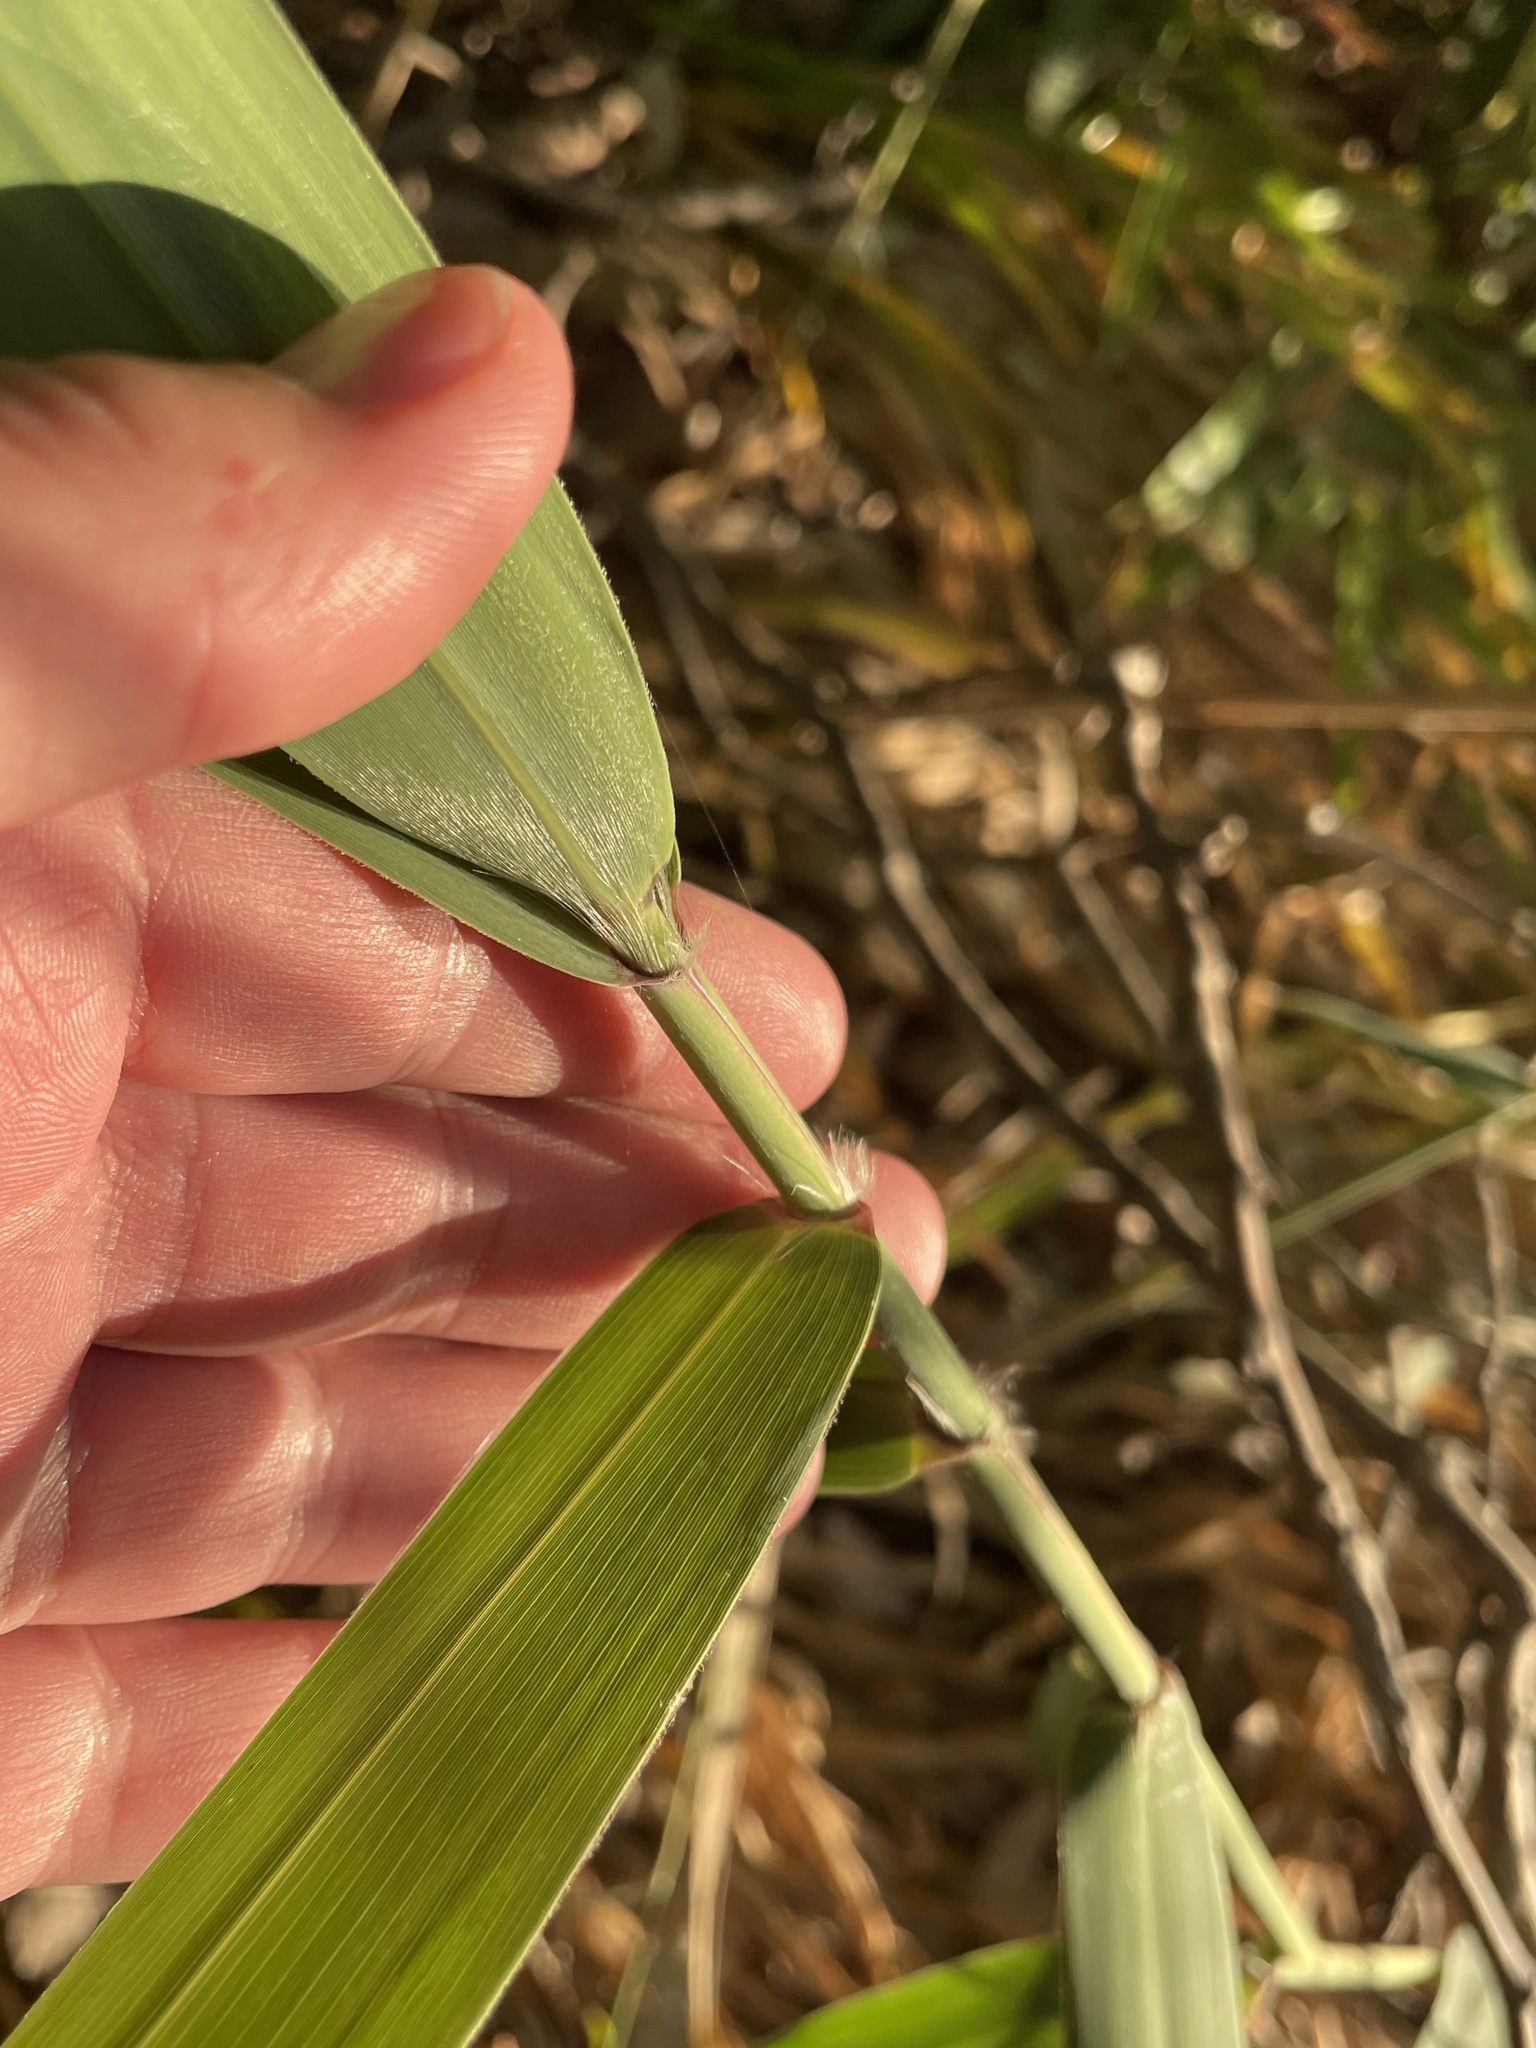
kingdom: Plantae
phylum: Tracheophyta
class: Liliopsida
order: Poales
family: Poaceae
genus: Phragmites
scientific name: Phragmites australis
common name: Common reed
